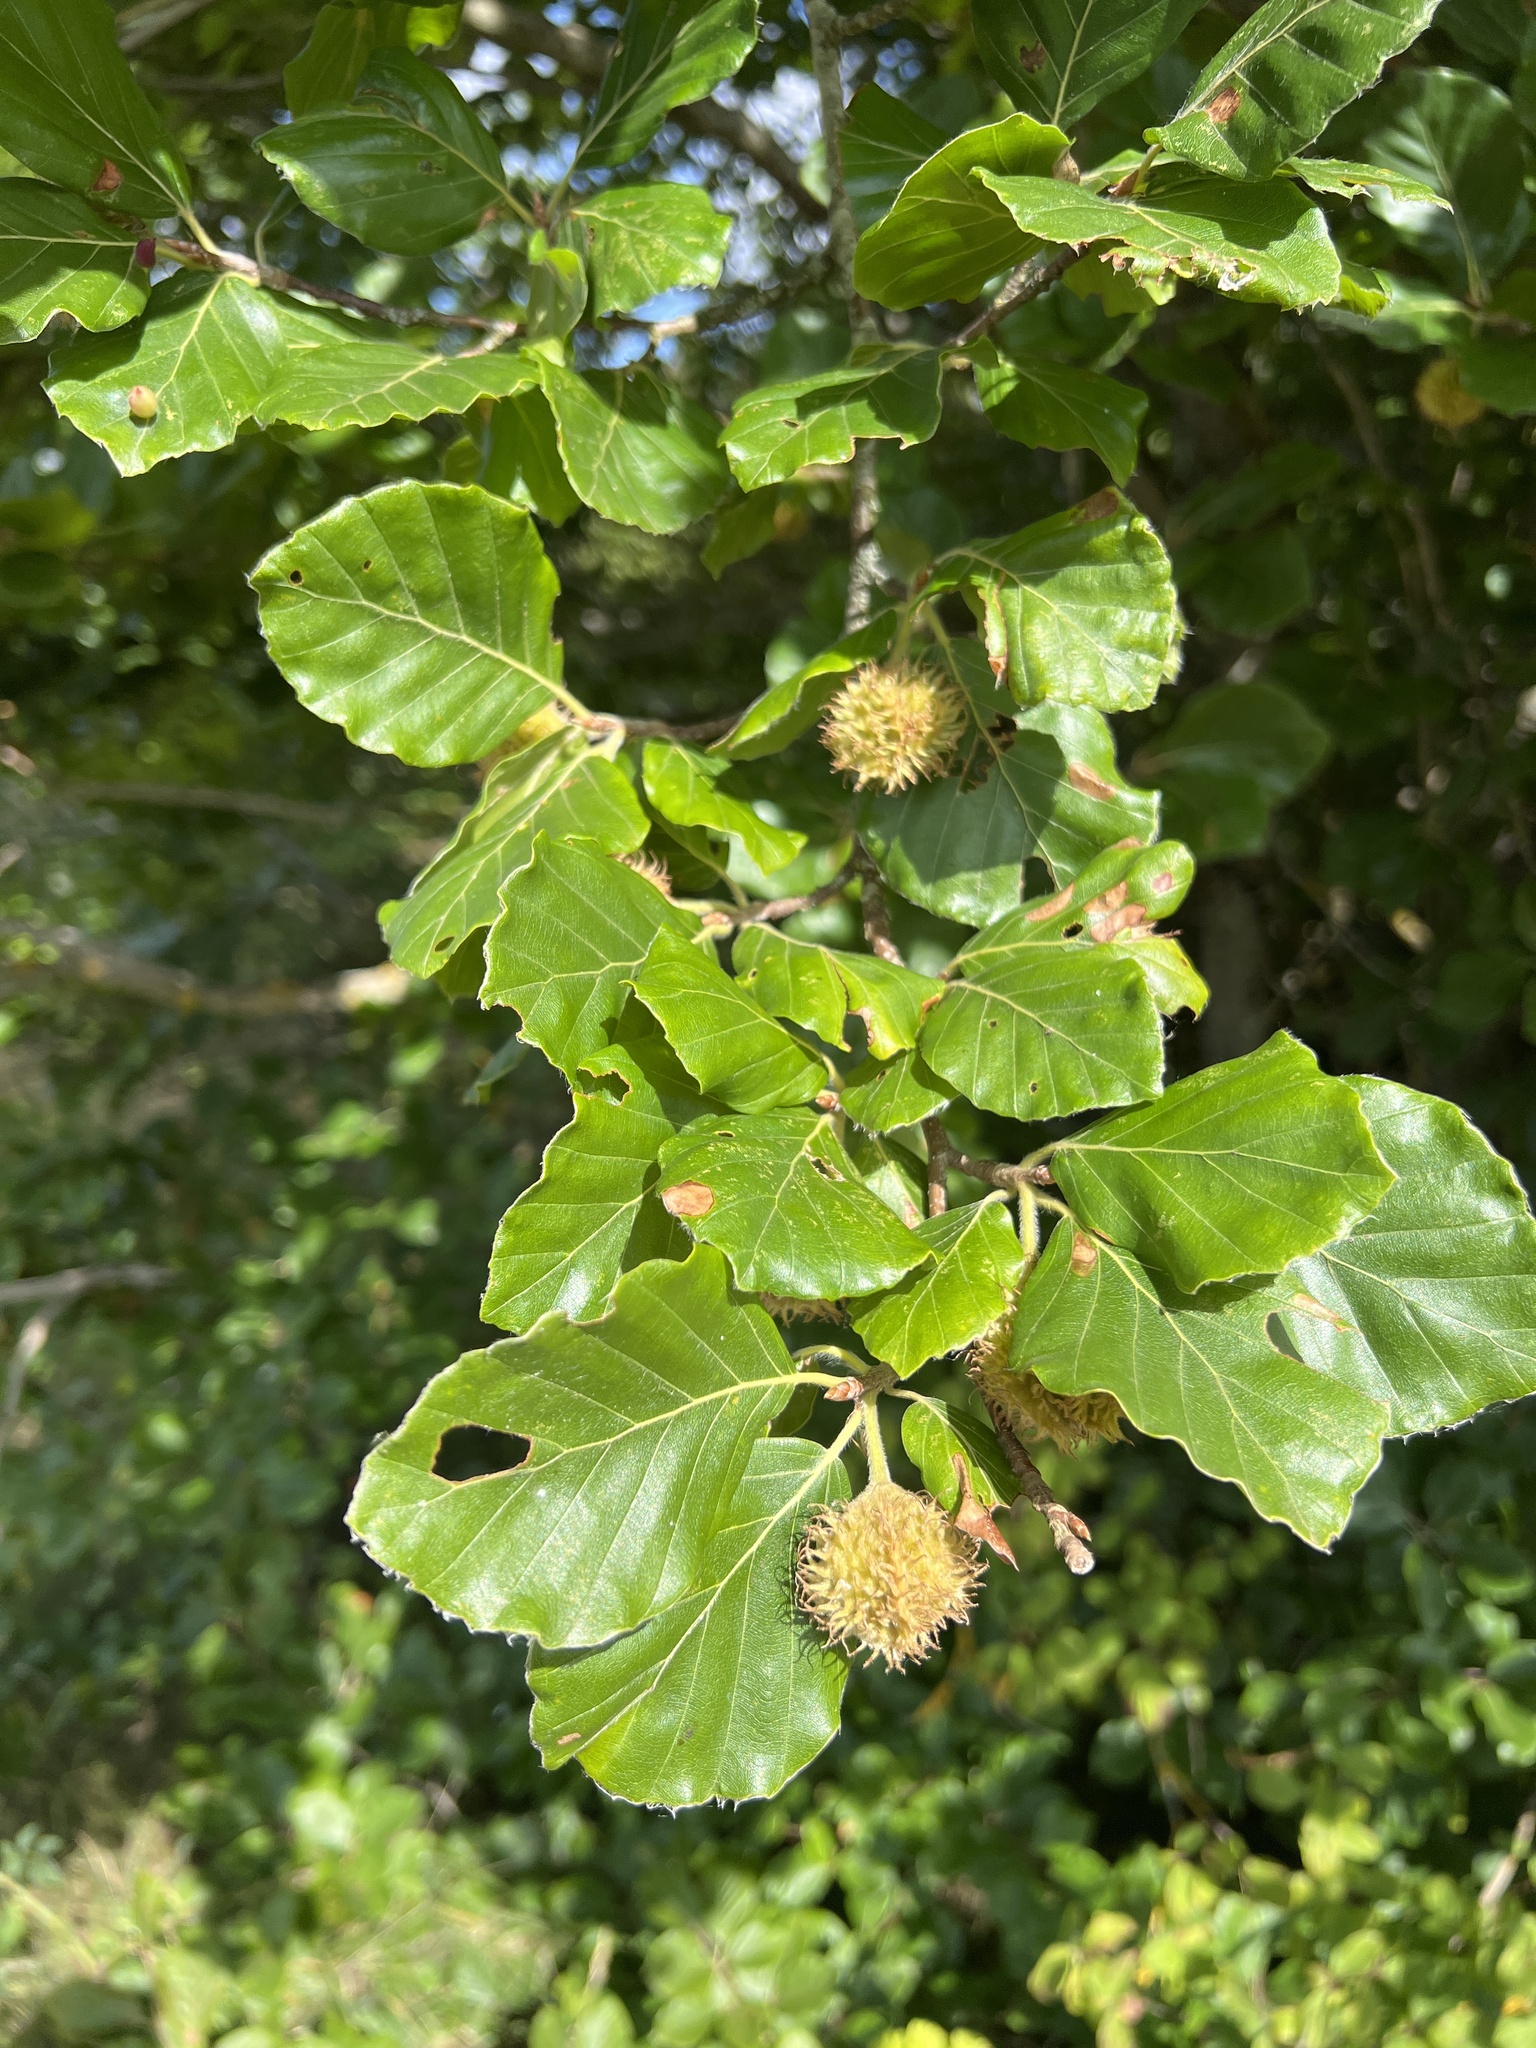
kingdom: Plantae
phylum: Tracheophyta
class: Magnoliopsida
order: Fagales
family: Fagaceae
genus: Fagus
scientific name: Fagus sylvatica
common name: Beech
